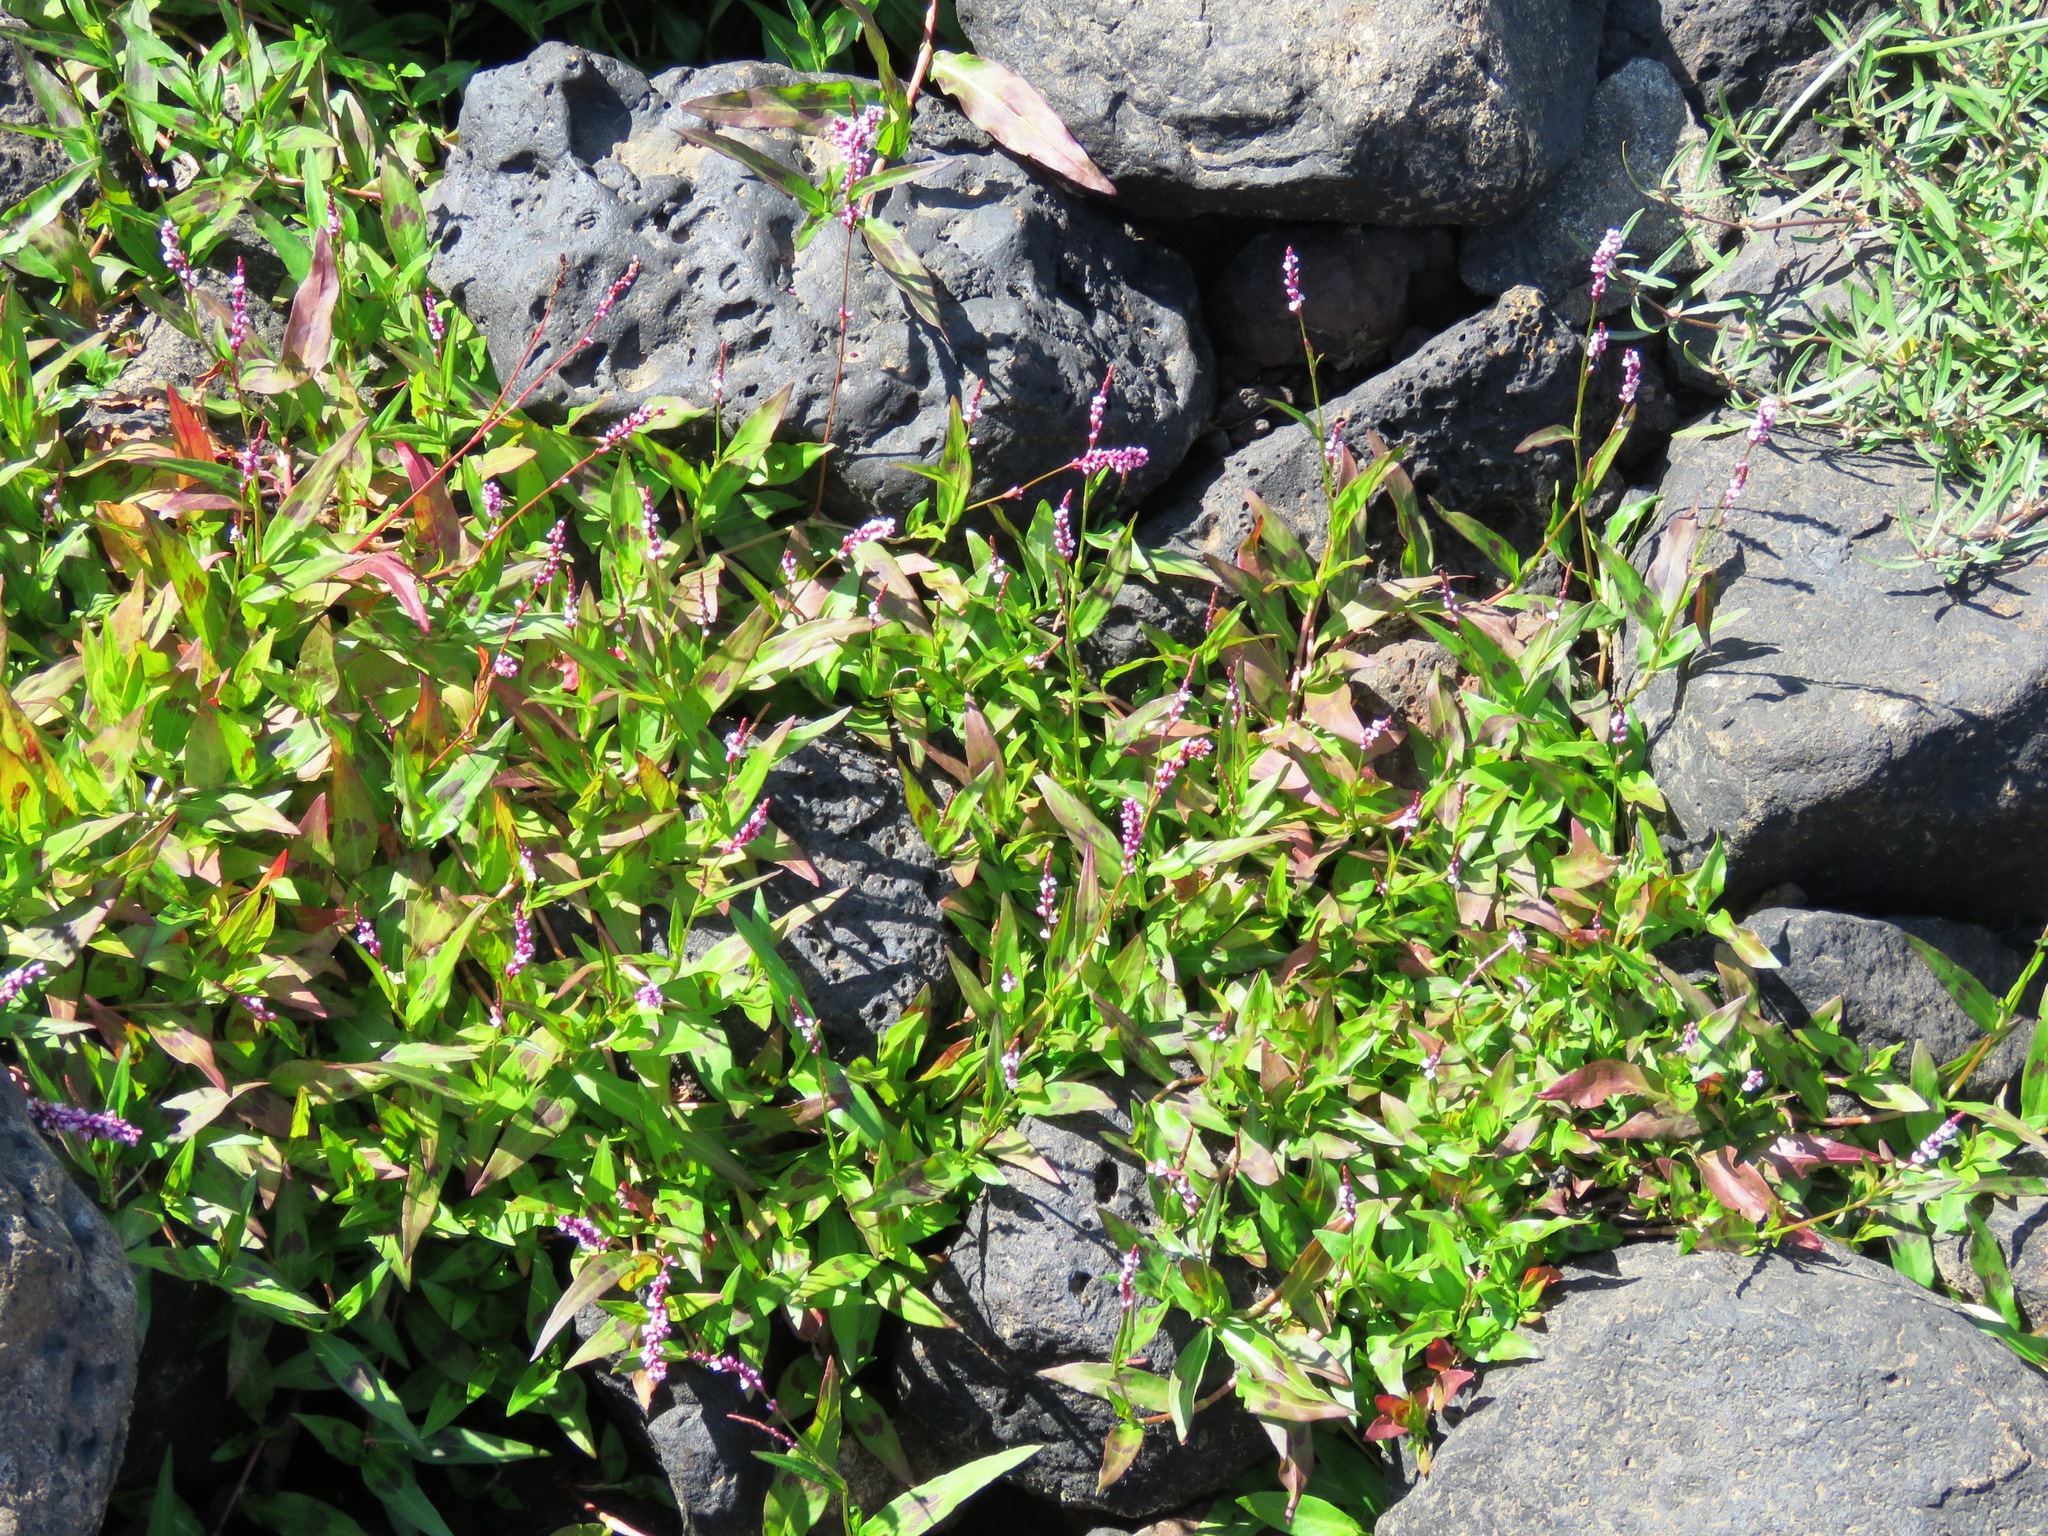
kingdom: Plantae
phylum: Tracheophyta
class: Magnoliopsida
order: Caryophyllales
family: Polygonaceae
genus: Persicaria
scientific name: Persicaria decipiens
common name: Willow-weed
